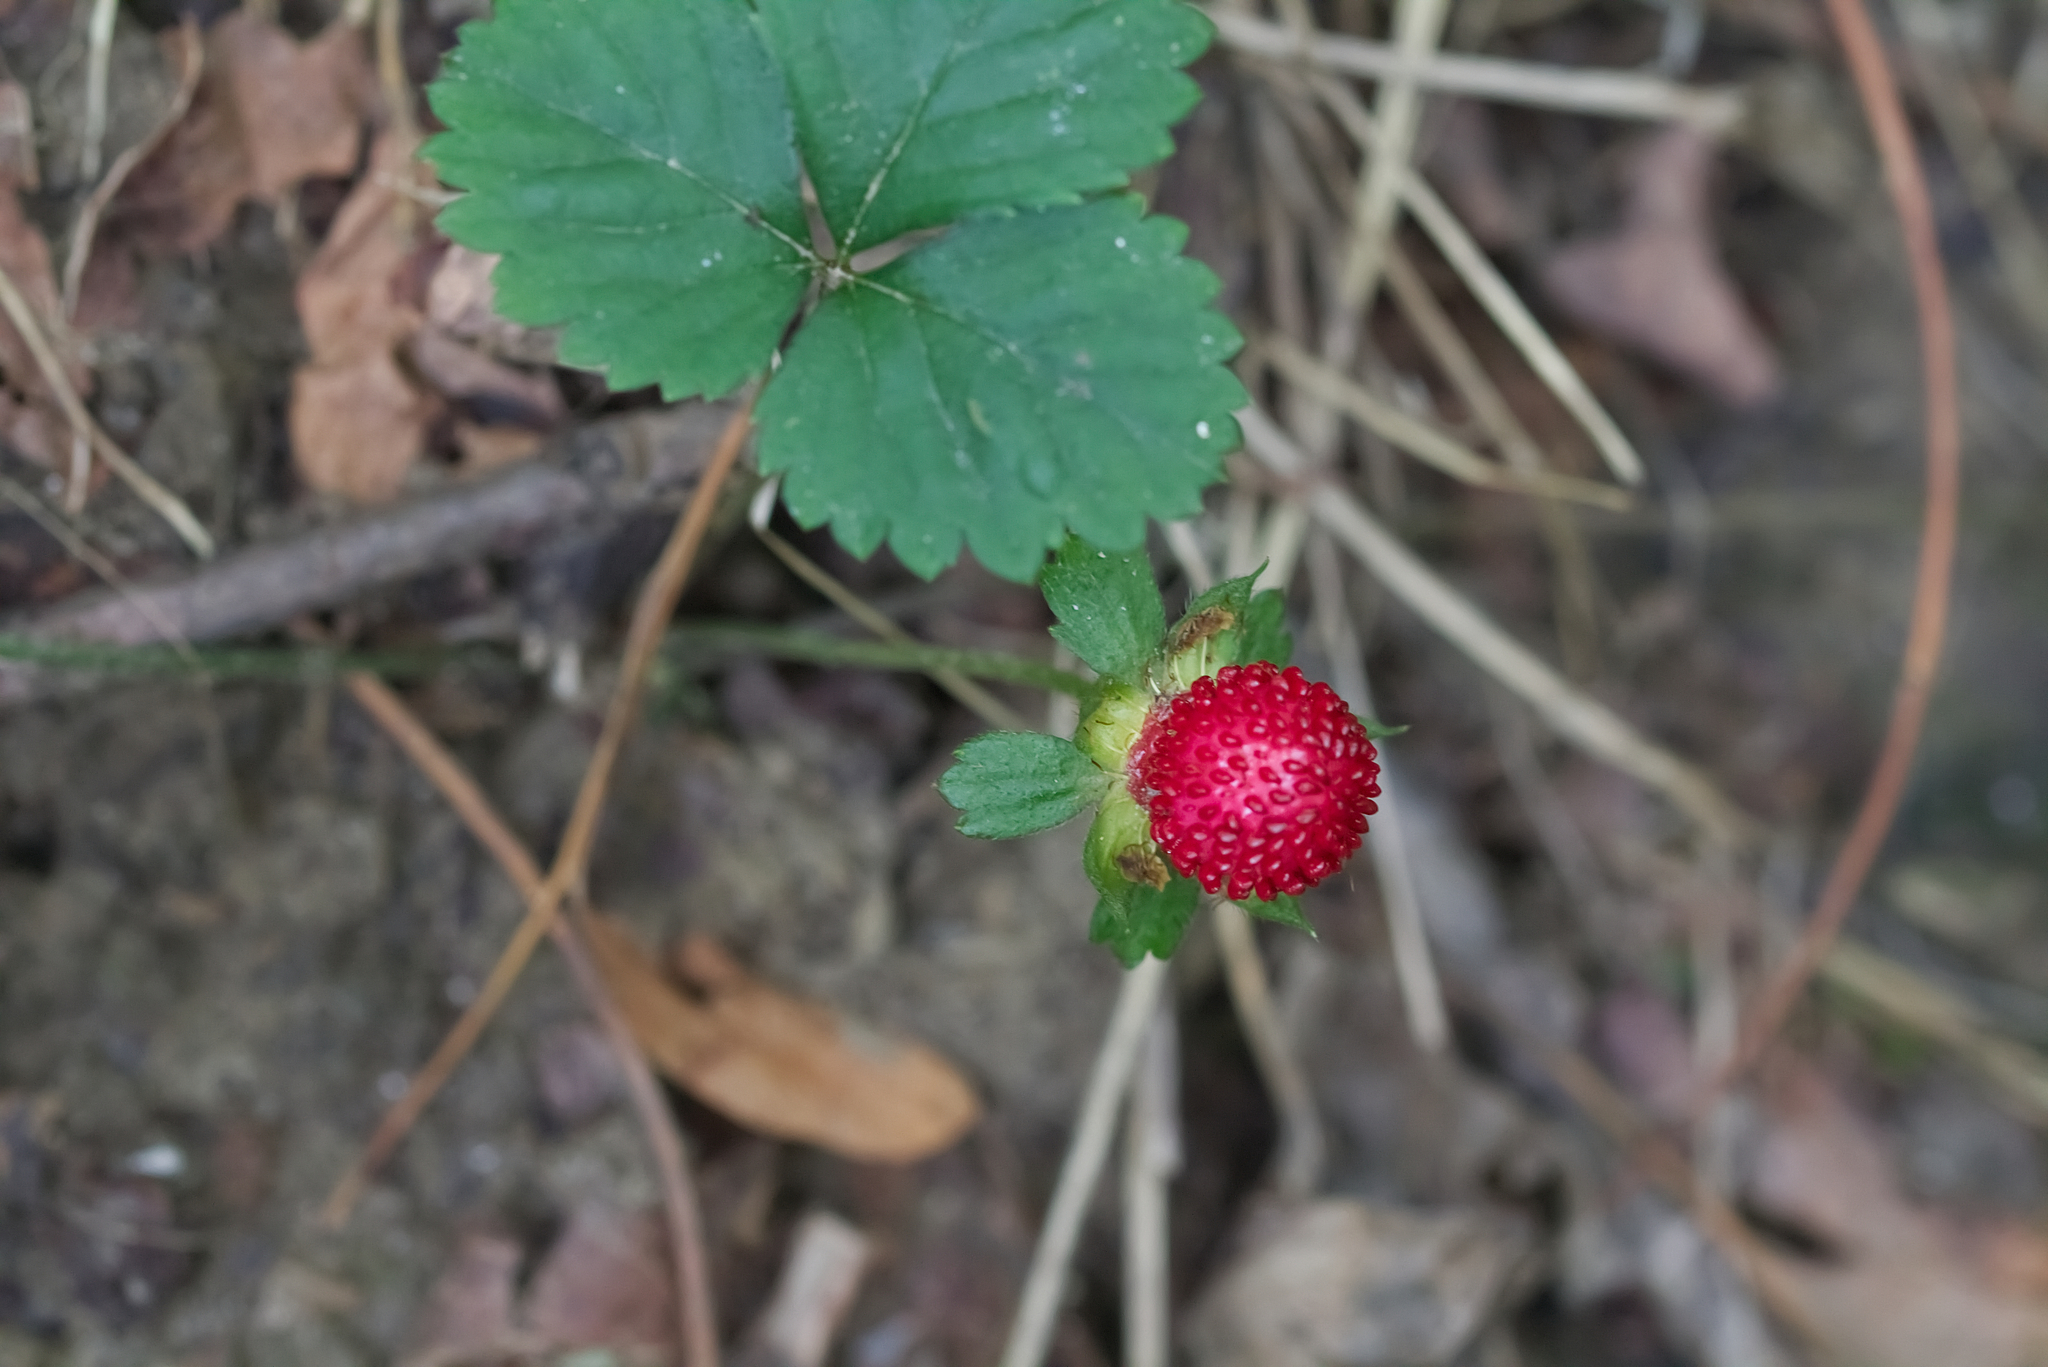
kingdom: Plantae
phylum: Tracheophyta
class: Magnoliopsida
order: Rosales
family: Rosaceae
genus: Potentilla
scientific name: Potentilla indica
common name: Yellow-flowered strawberry
